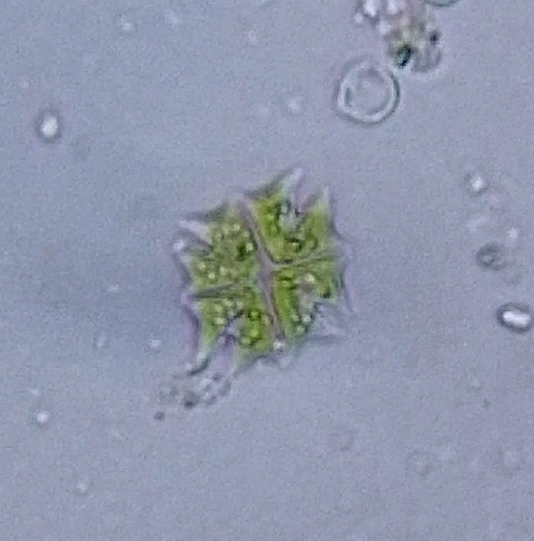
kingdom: Plantae
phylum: Chlorophyta
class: Chlorophyceae
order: Sphaeropleales
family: Hydrodictyaceae
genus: Stauridium
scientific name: Stauridium tetras
